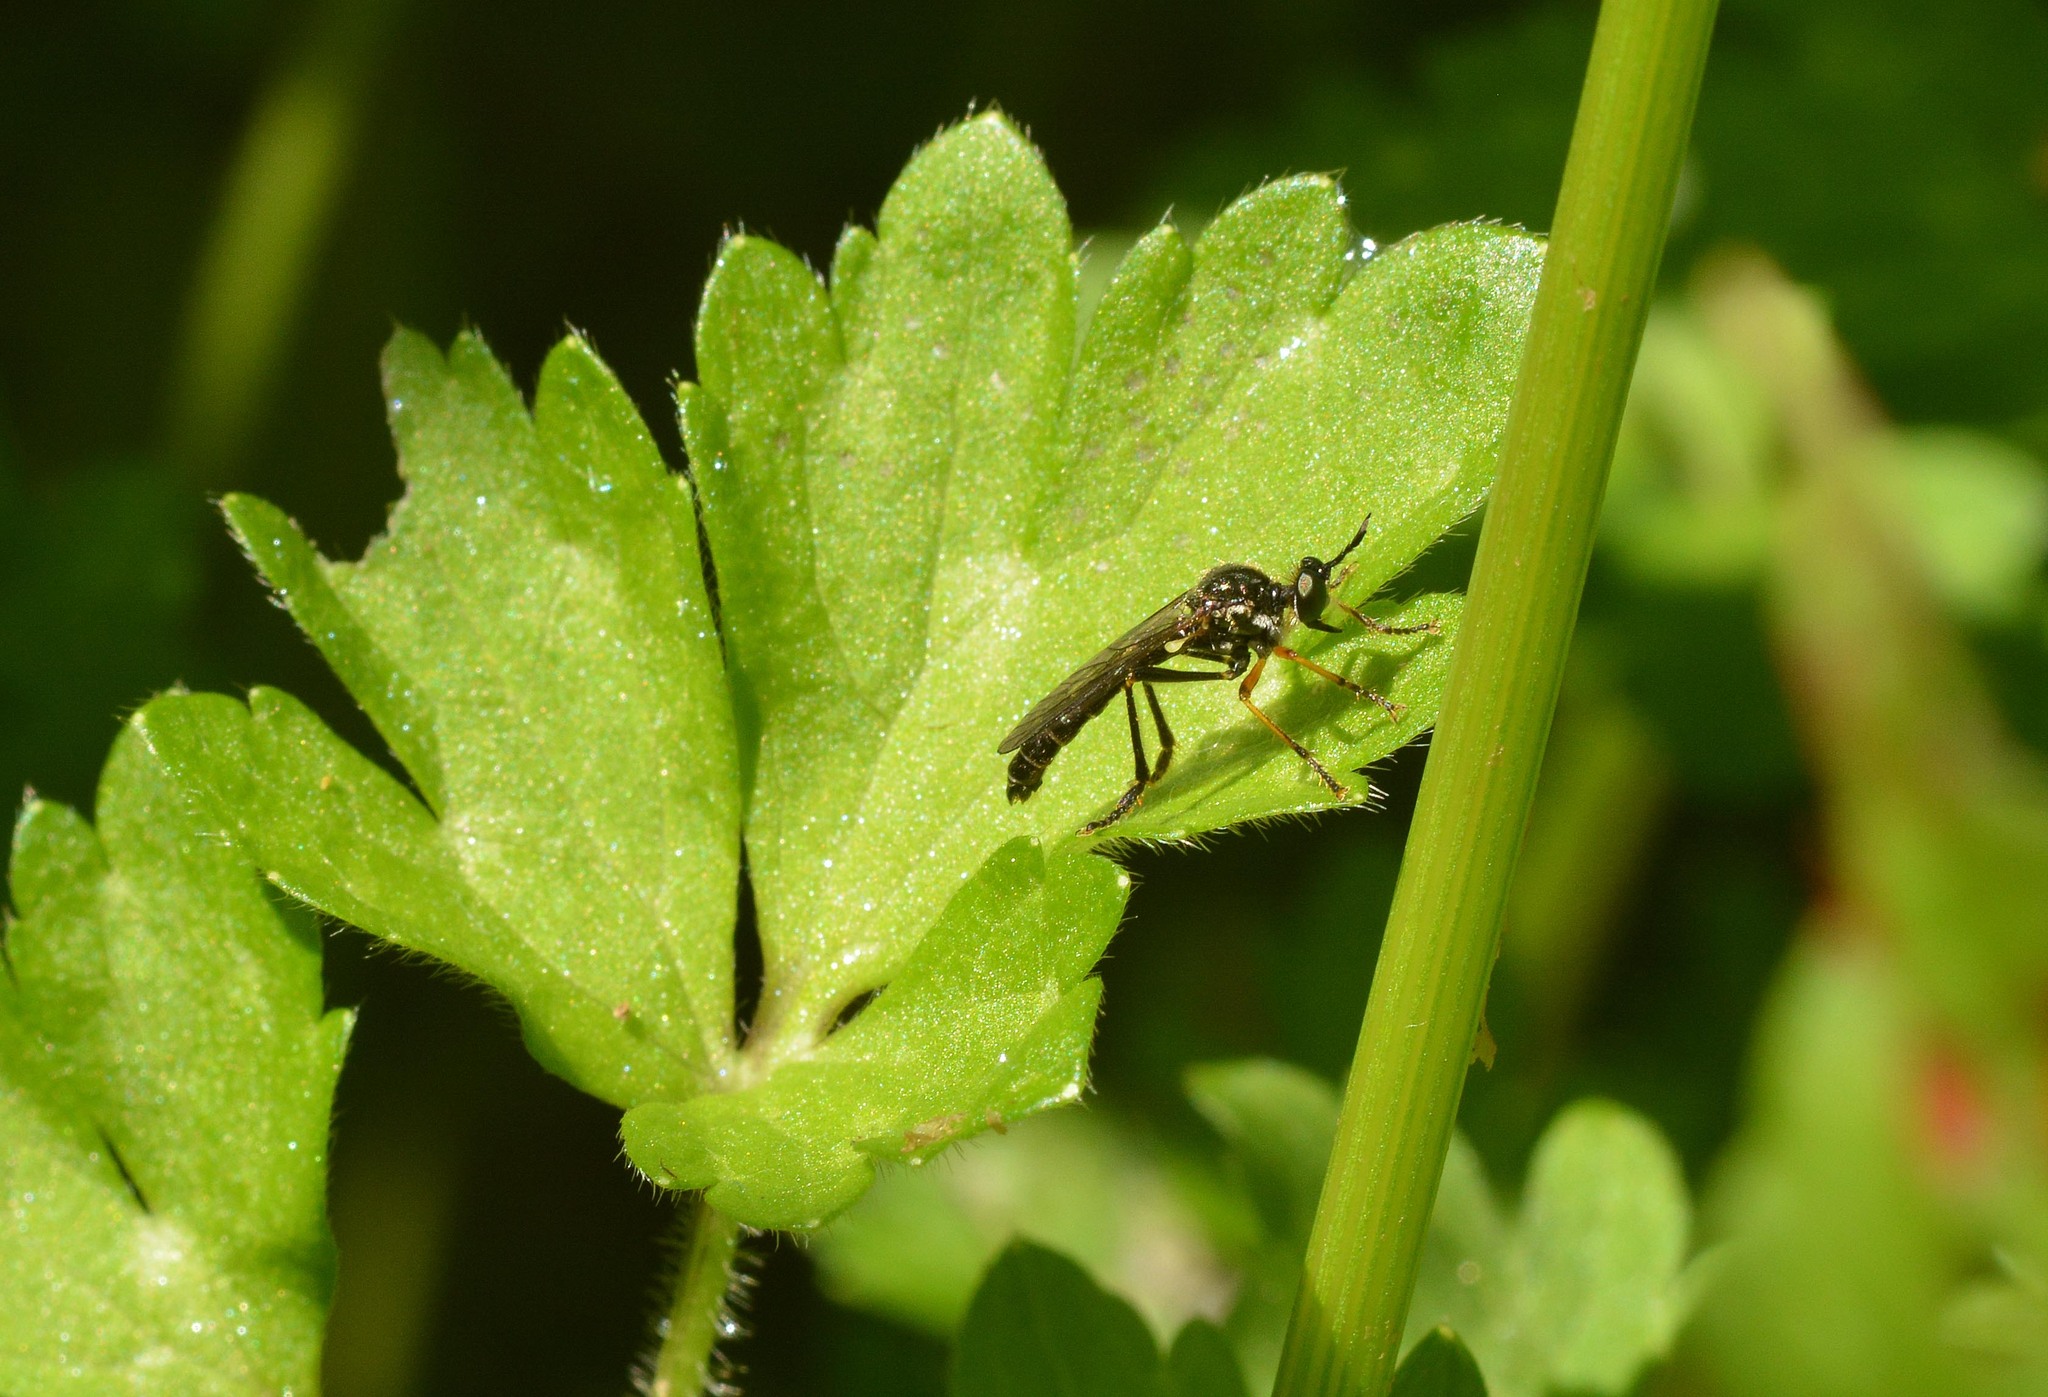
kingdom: Animalia
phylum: Arthropoda
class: Insecta
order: Diptera
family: Asilidae
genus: Dioctria
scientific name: Dioctria rufipes
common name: Common red-legged robberfly
